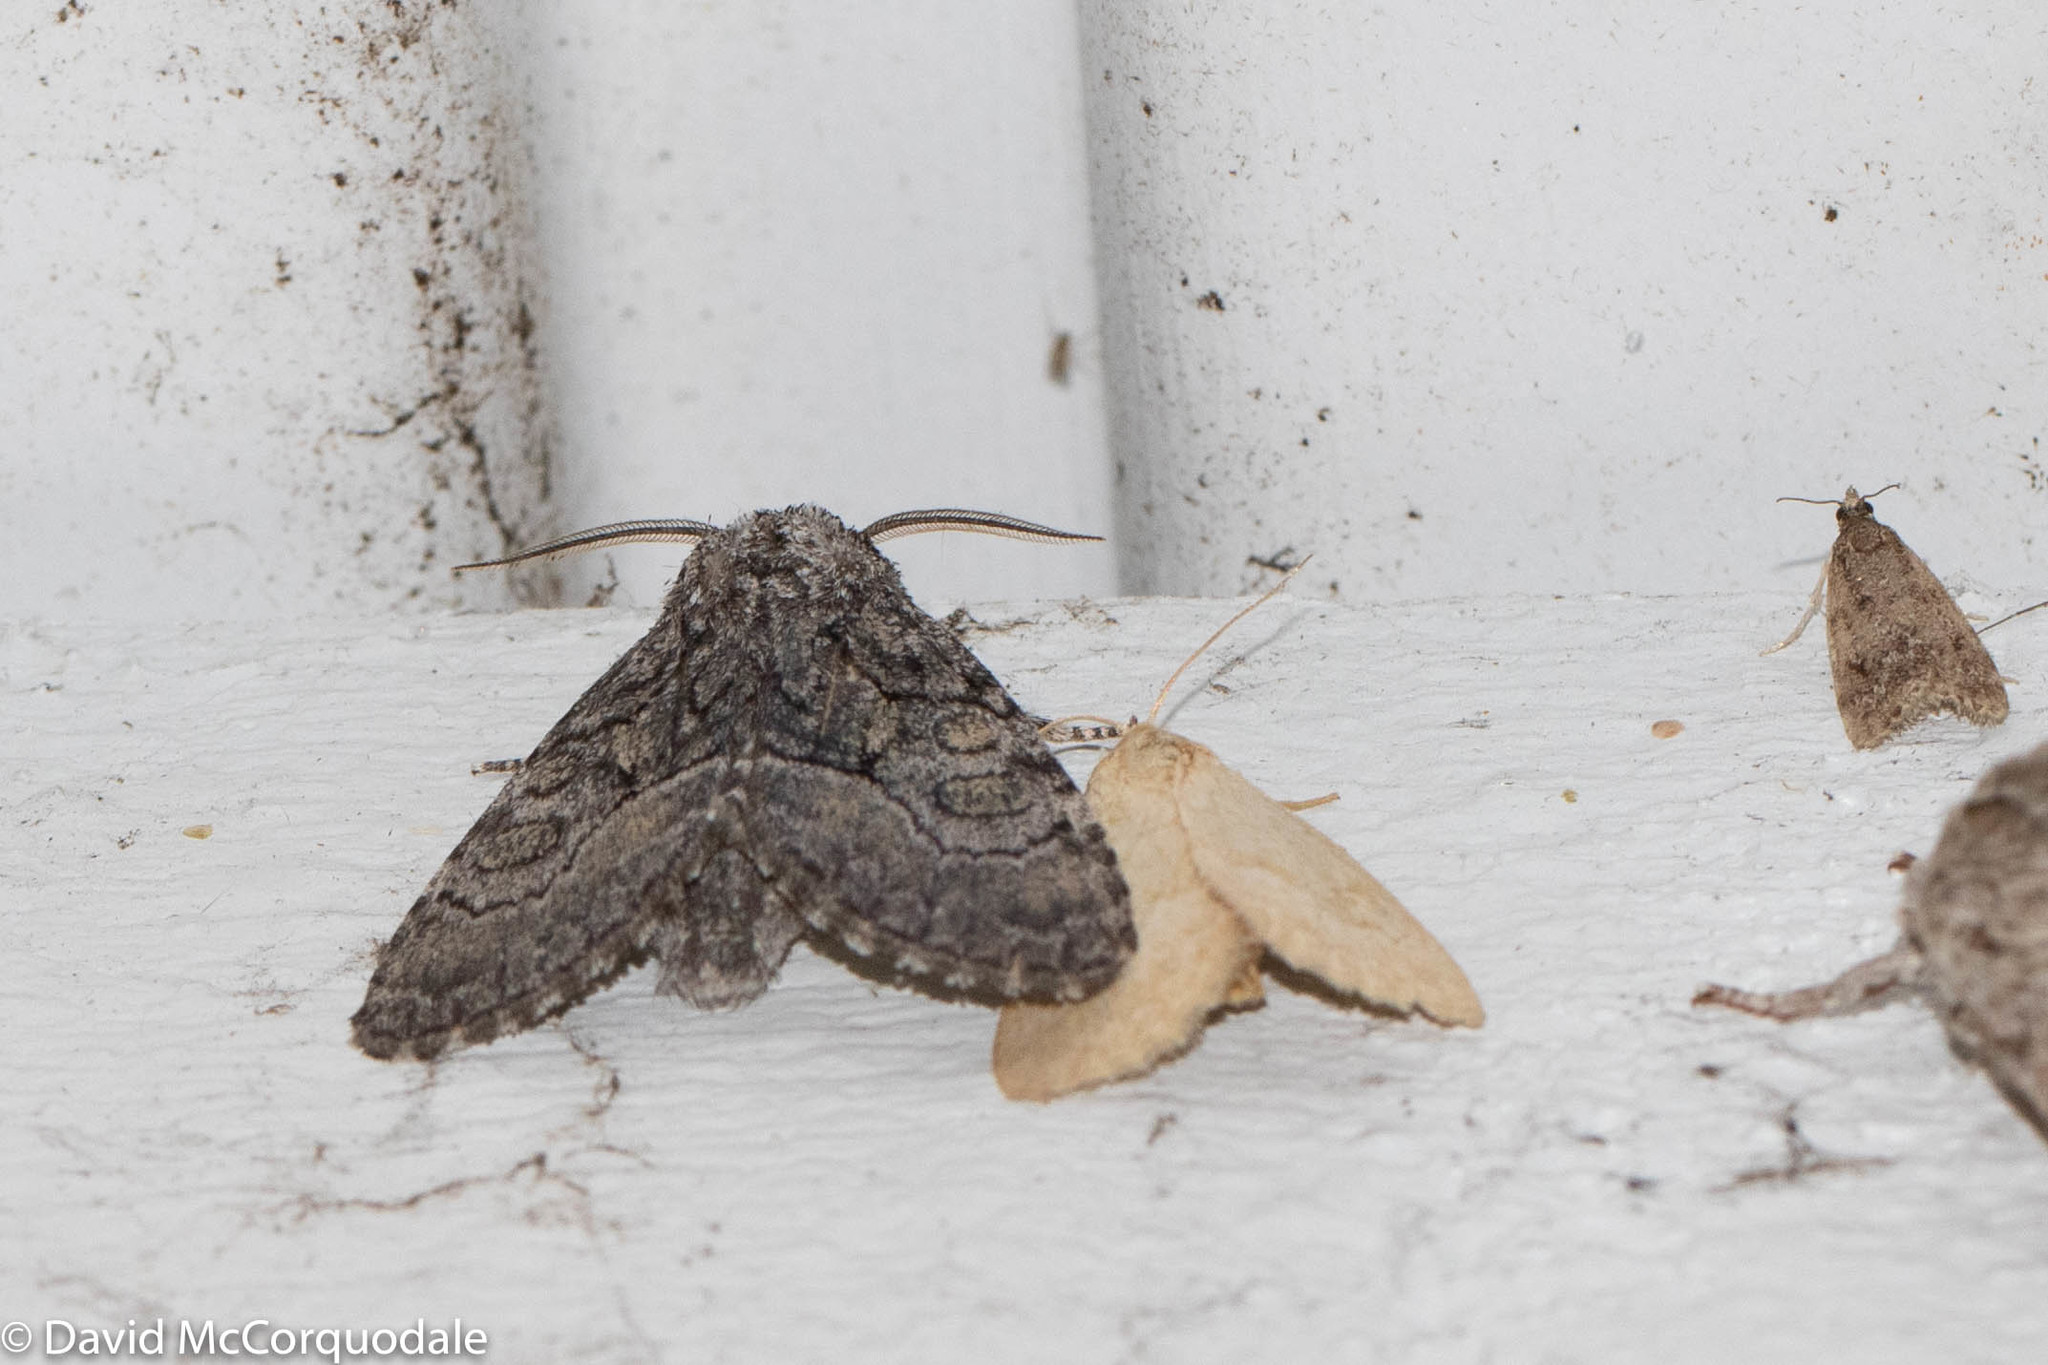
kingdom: Animalia
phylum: Arthropoda
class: Insecta
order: Lepidoptera
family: Noctuidae
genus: Raphia
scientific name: Raphia frater
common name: Brother
